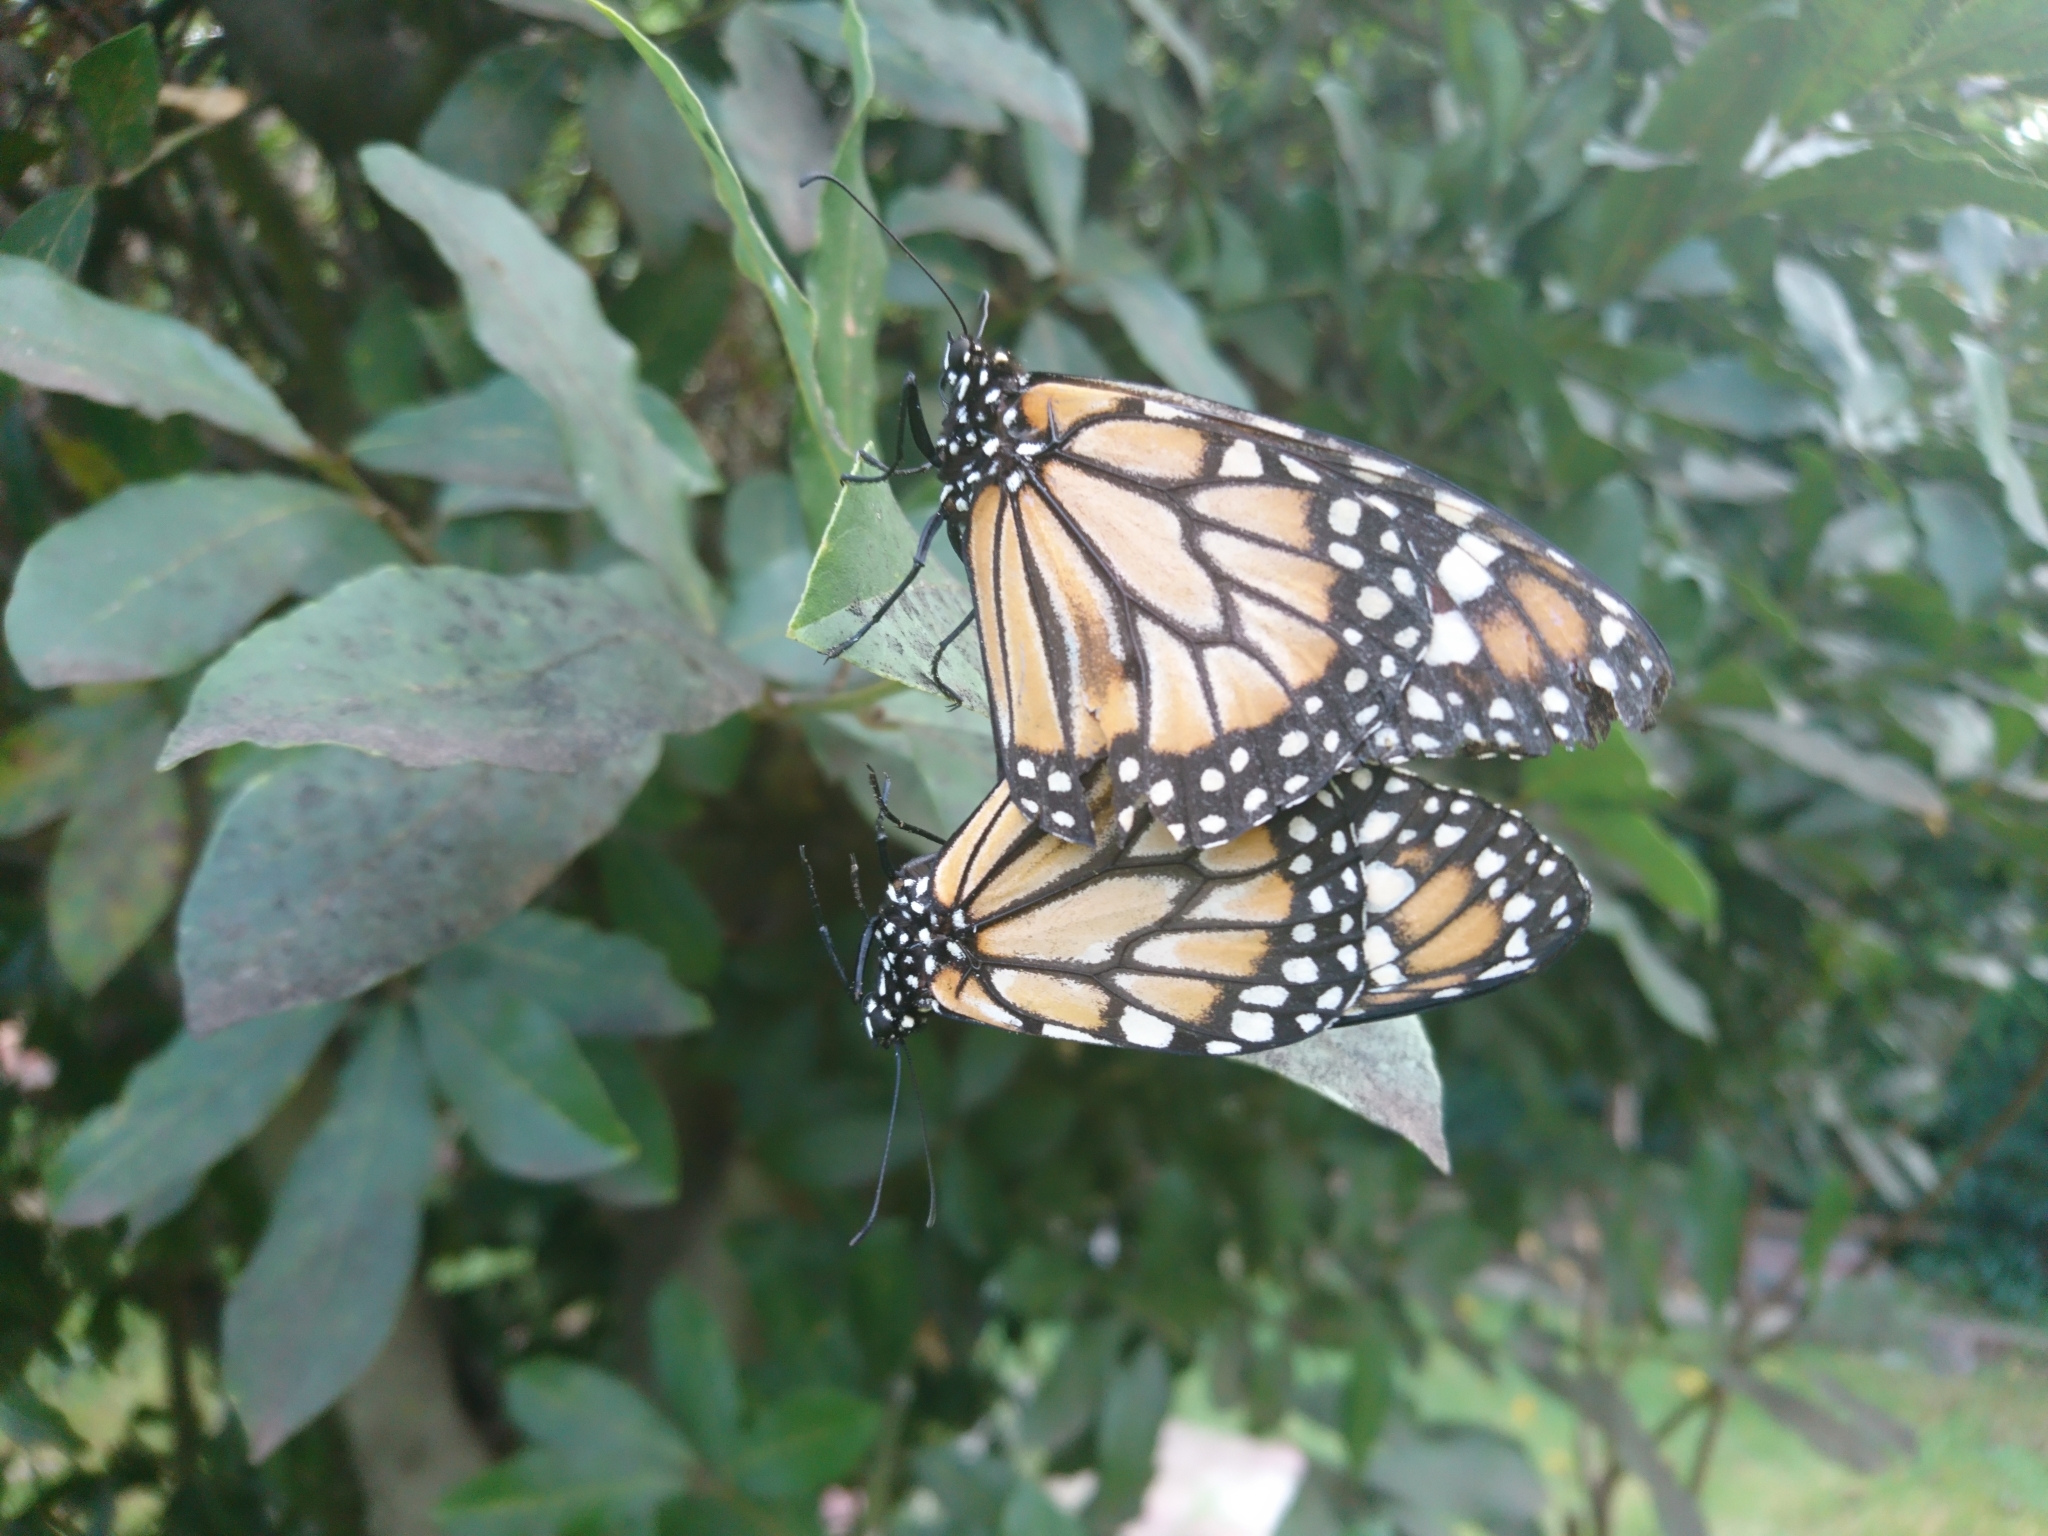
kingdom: Animalia
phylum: Arthropoda
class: Insecta
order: Lepidoptera
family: Nymphalidae
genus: Danaus
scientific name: Danaus erippus
